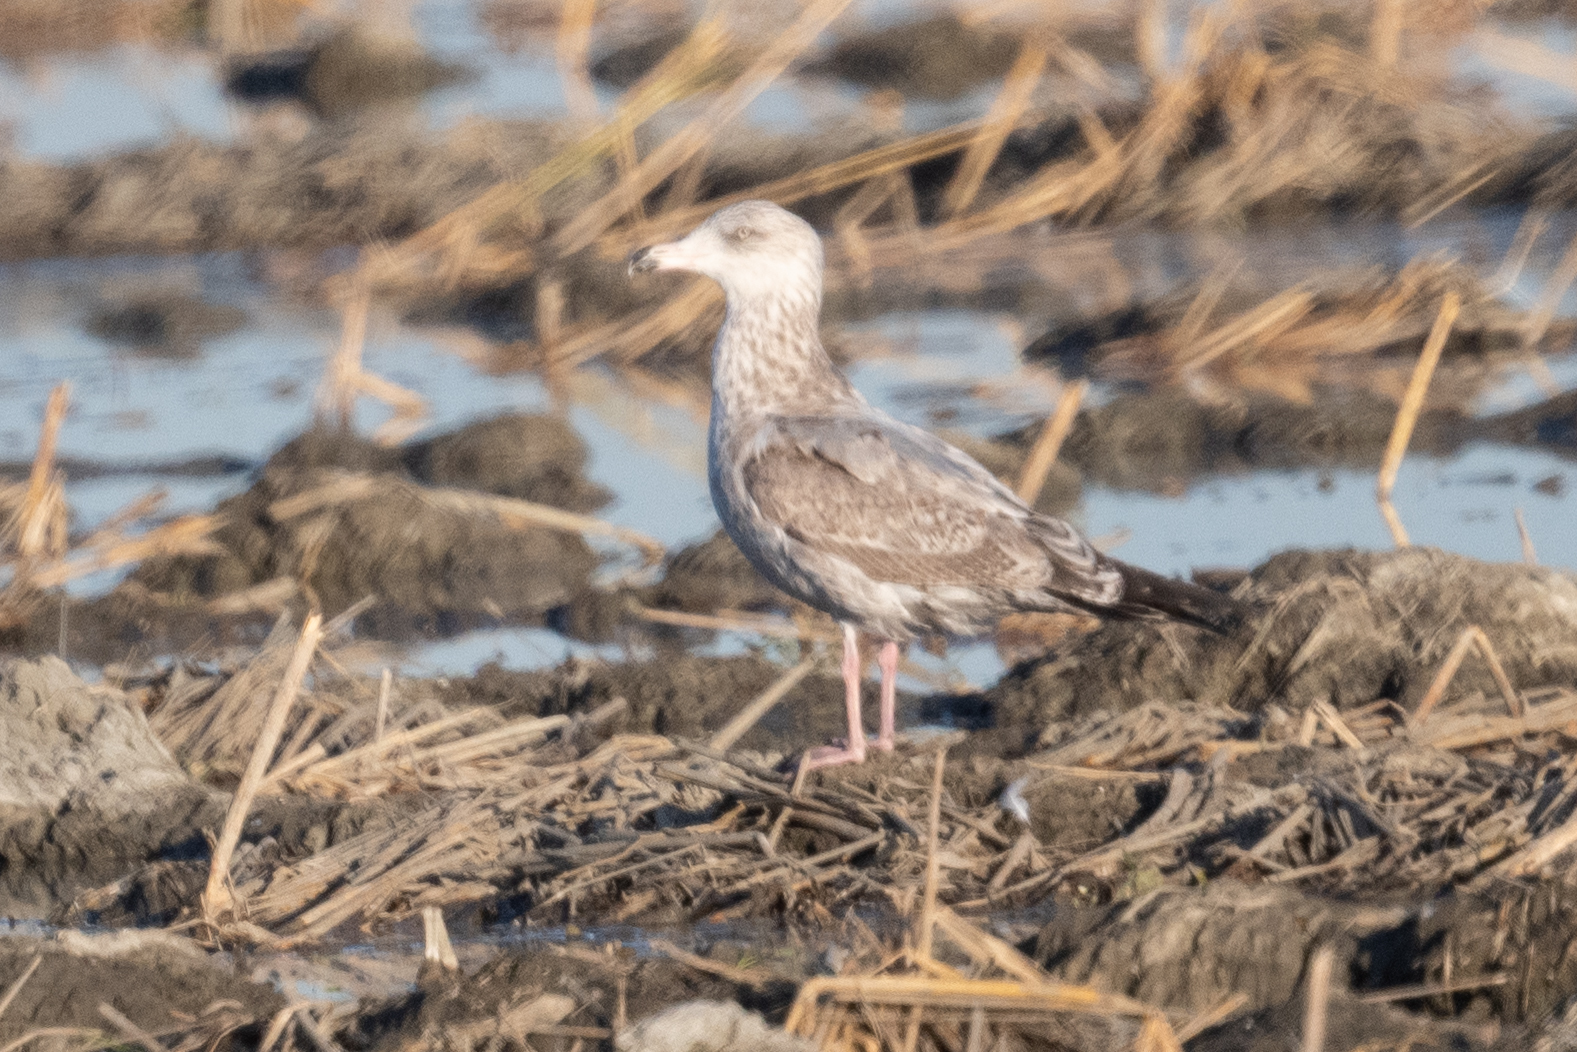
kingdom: Animalia
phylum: Chordata
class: Aves
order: Charadriiformes
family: Laridae
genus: Larus
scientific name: Larus argentatus
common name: Herring gull
